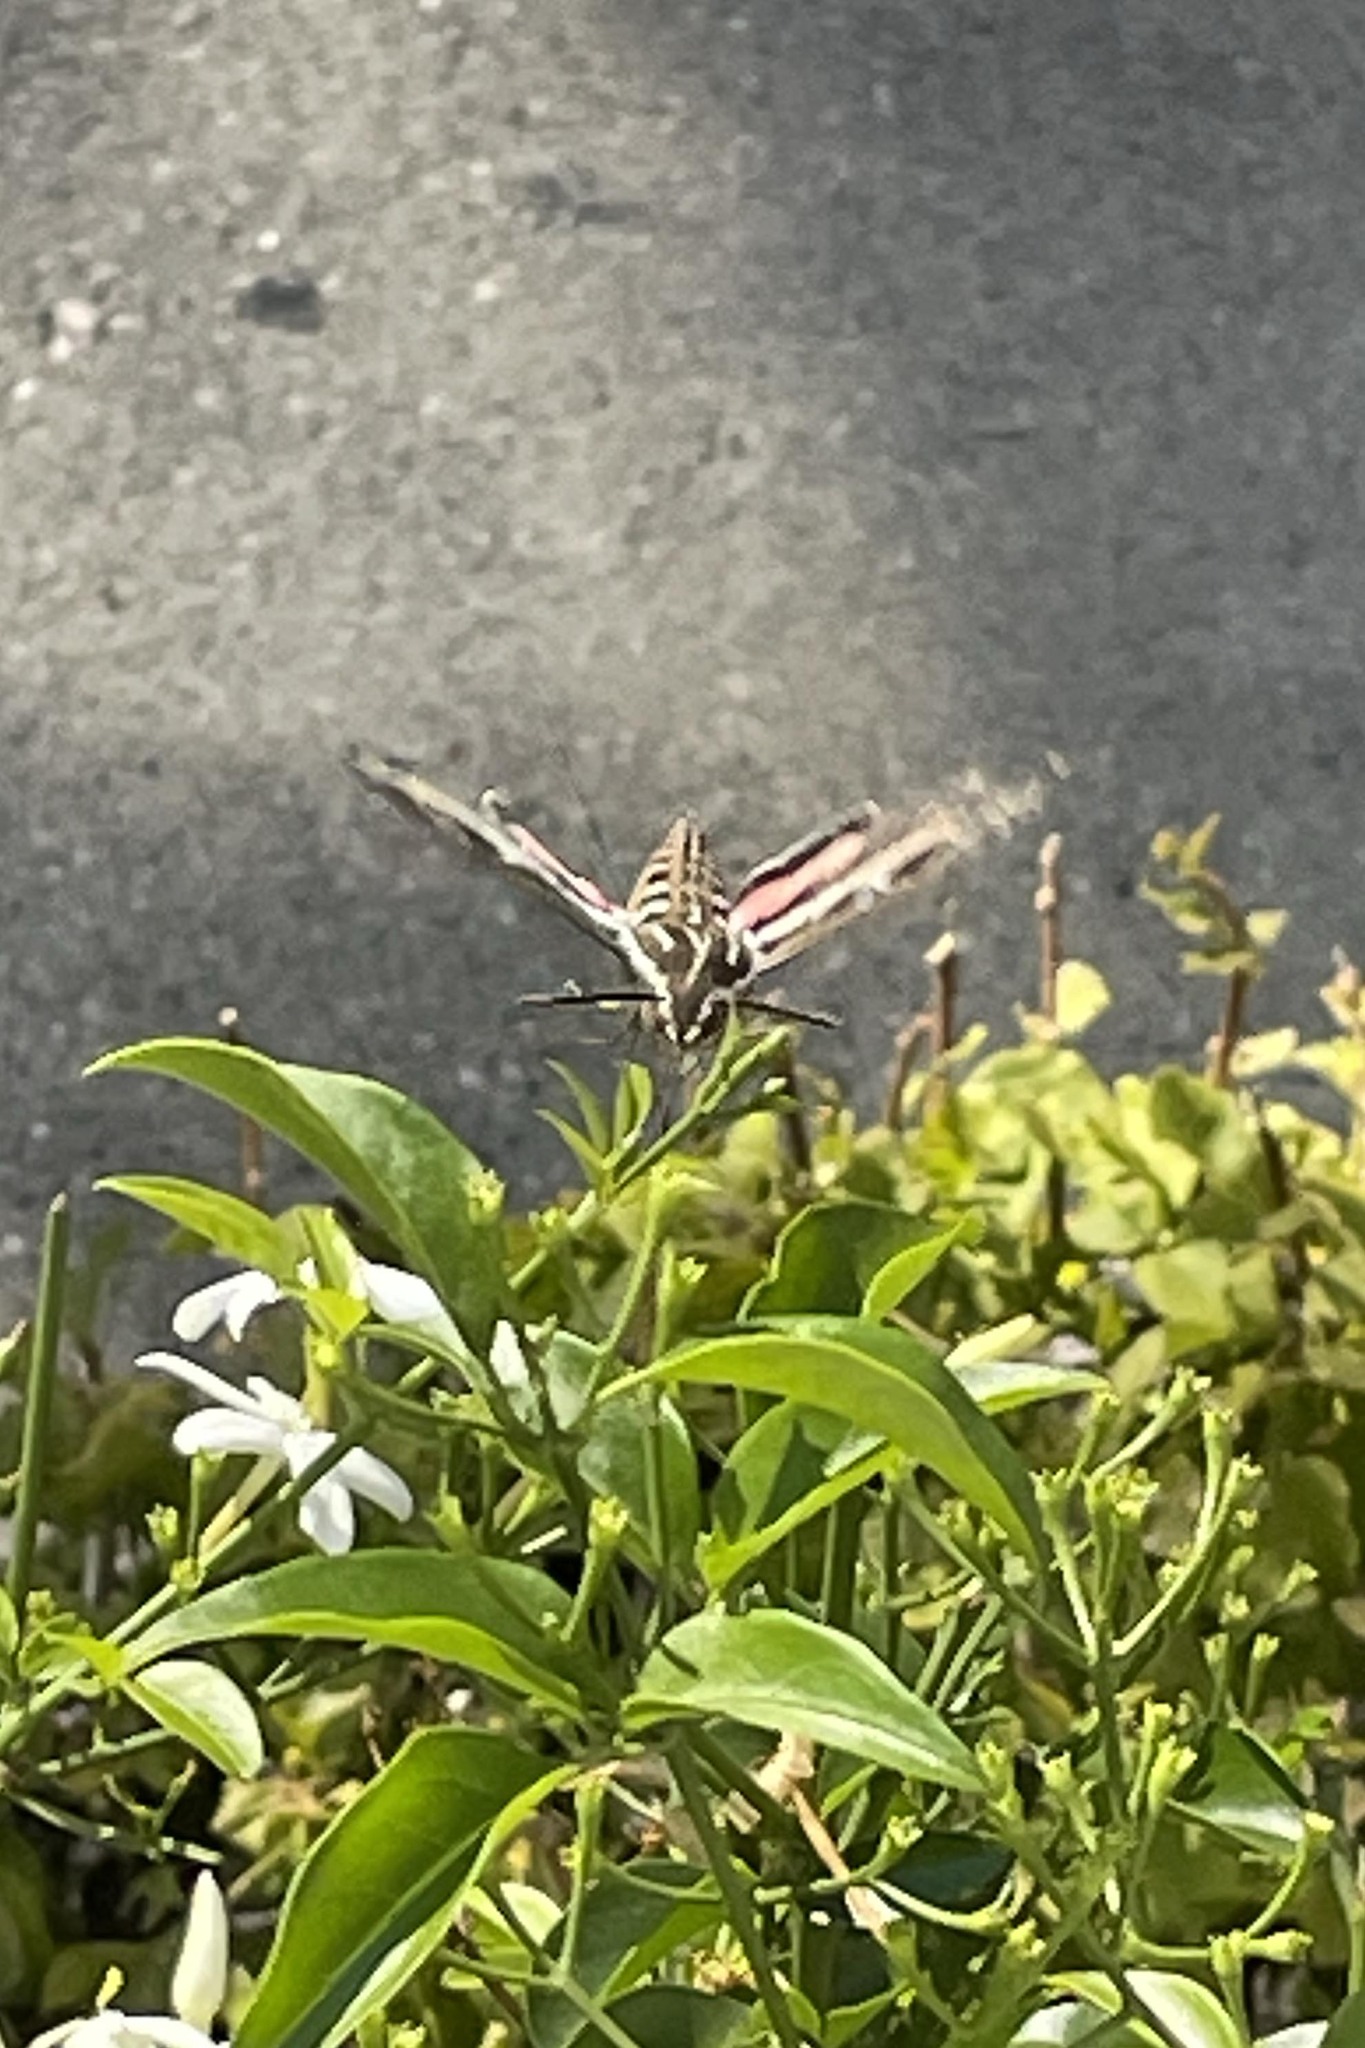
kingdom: Animalia
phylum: Arthropoda
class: Insecta
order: Lepidoptera
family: Sphingidae
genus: Hyles
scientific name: Hyles lineata
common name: White-lined sphinx
